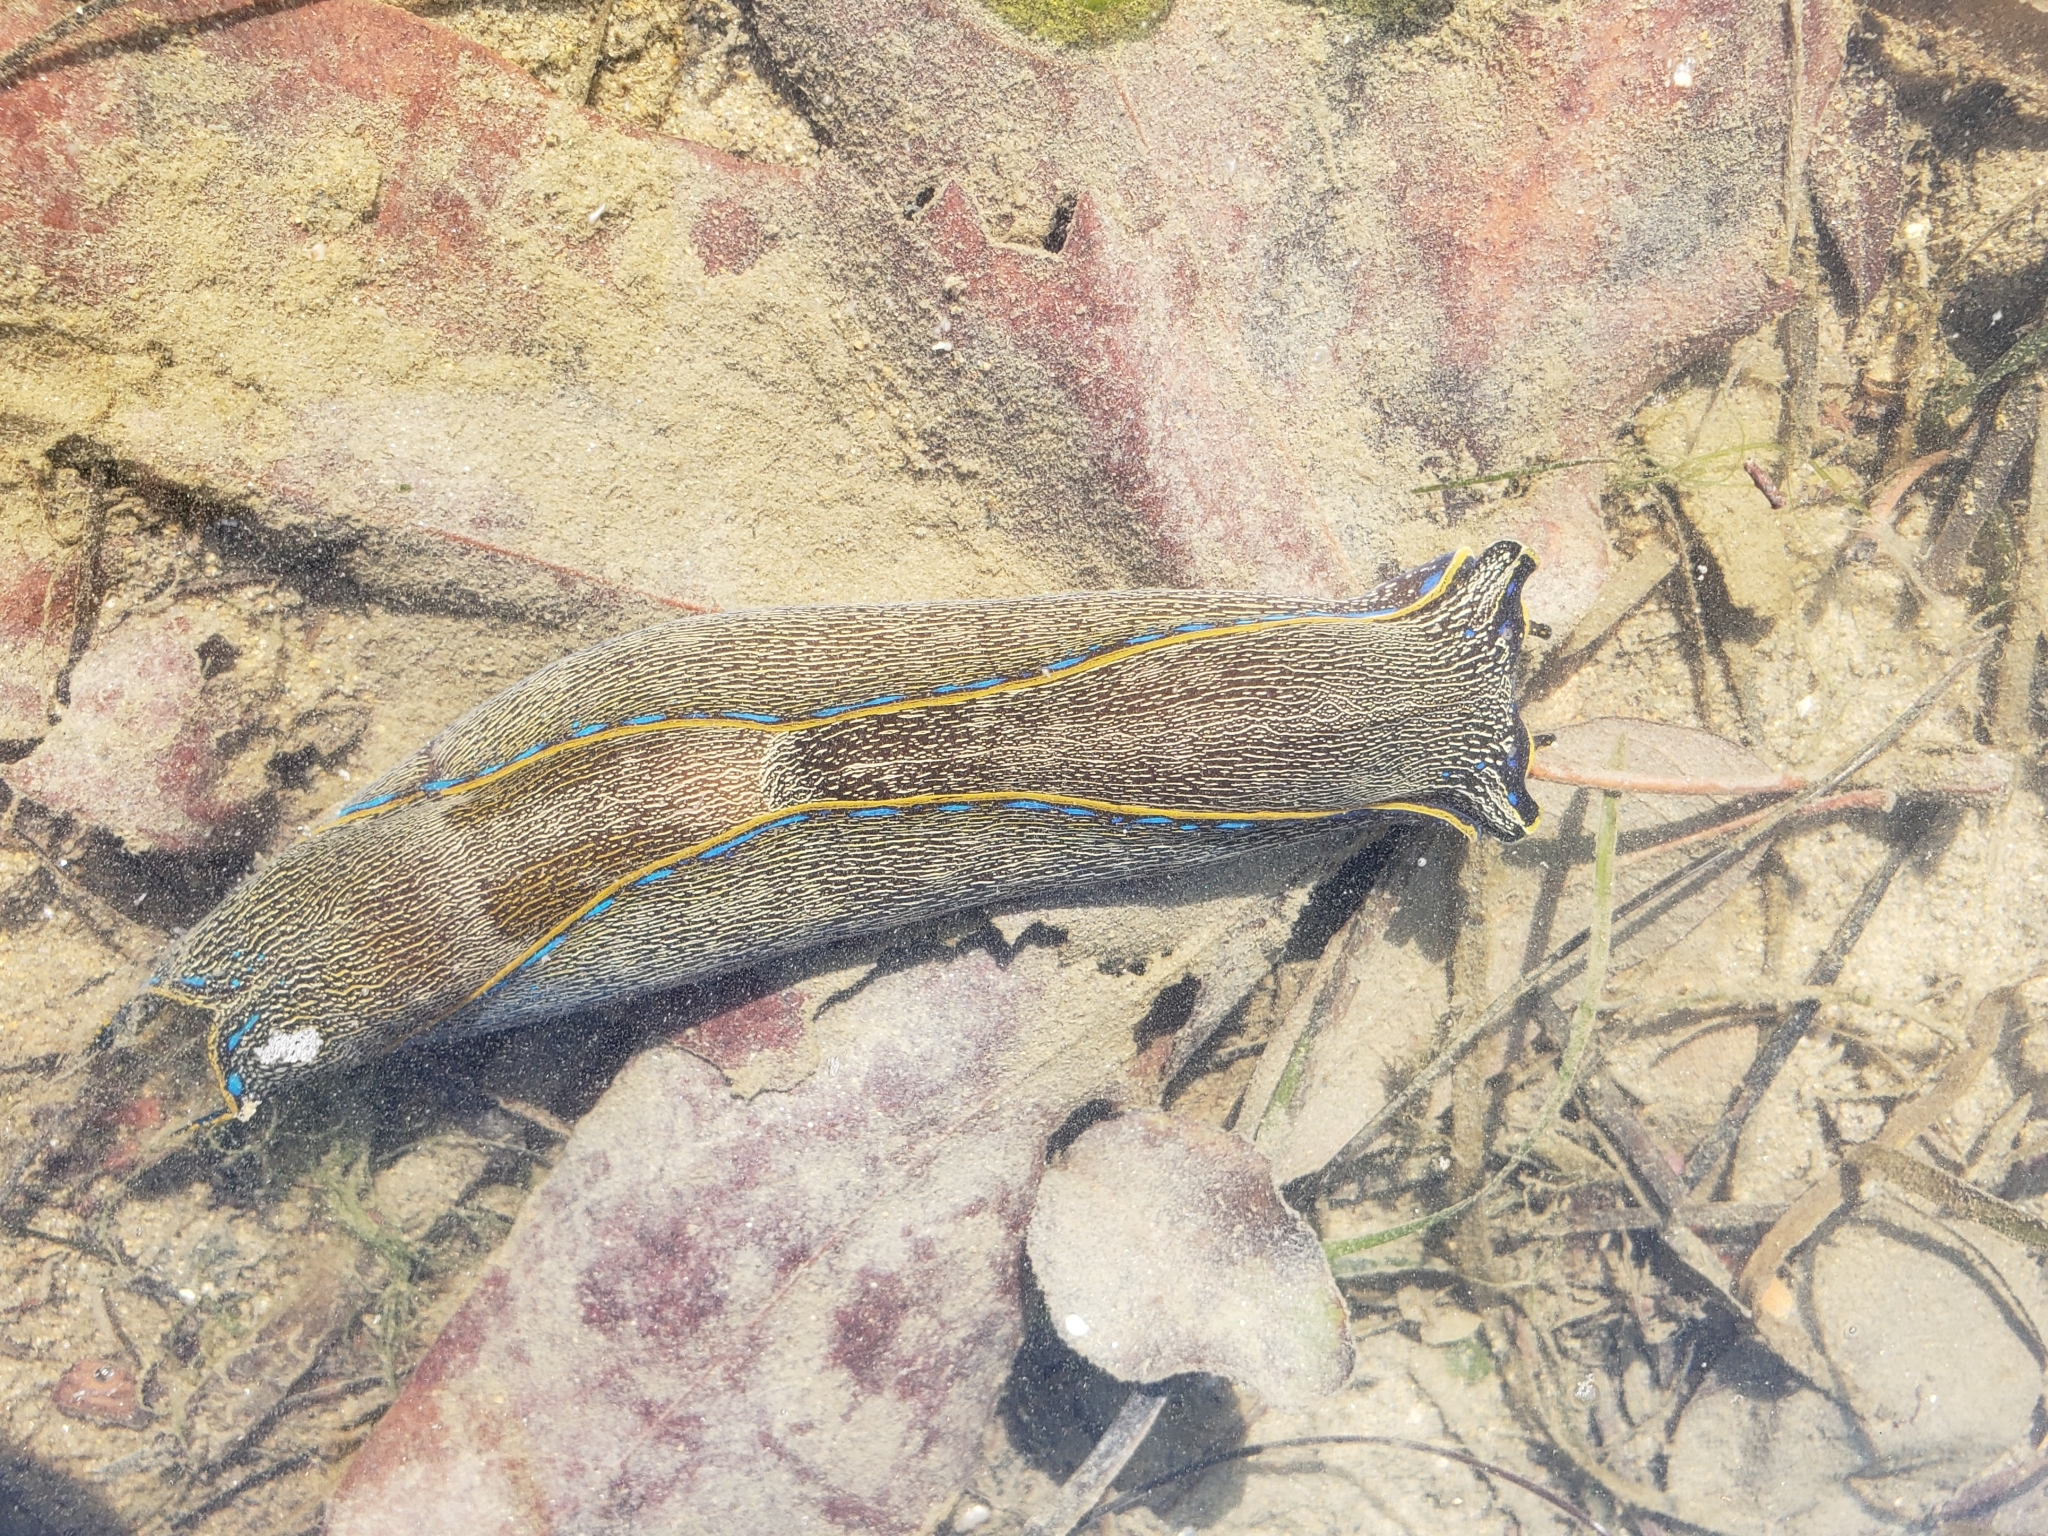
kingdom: Animalia
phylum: Mollusca
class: Gastropoda
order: Cephalaspidea
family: Aglajidae
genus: Navanax
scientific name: Navanax inermis
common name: California aglaja
